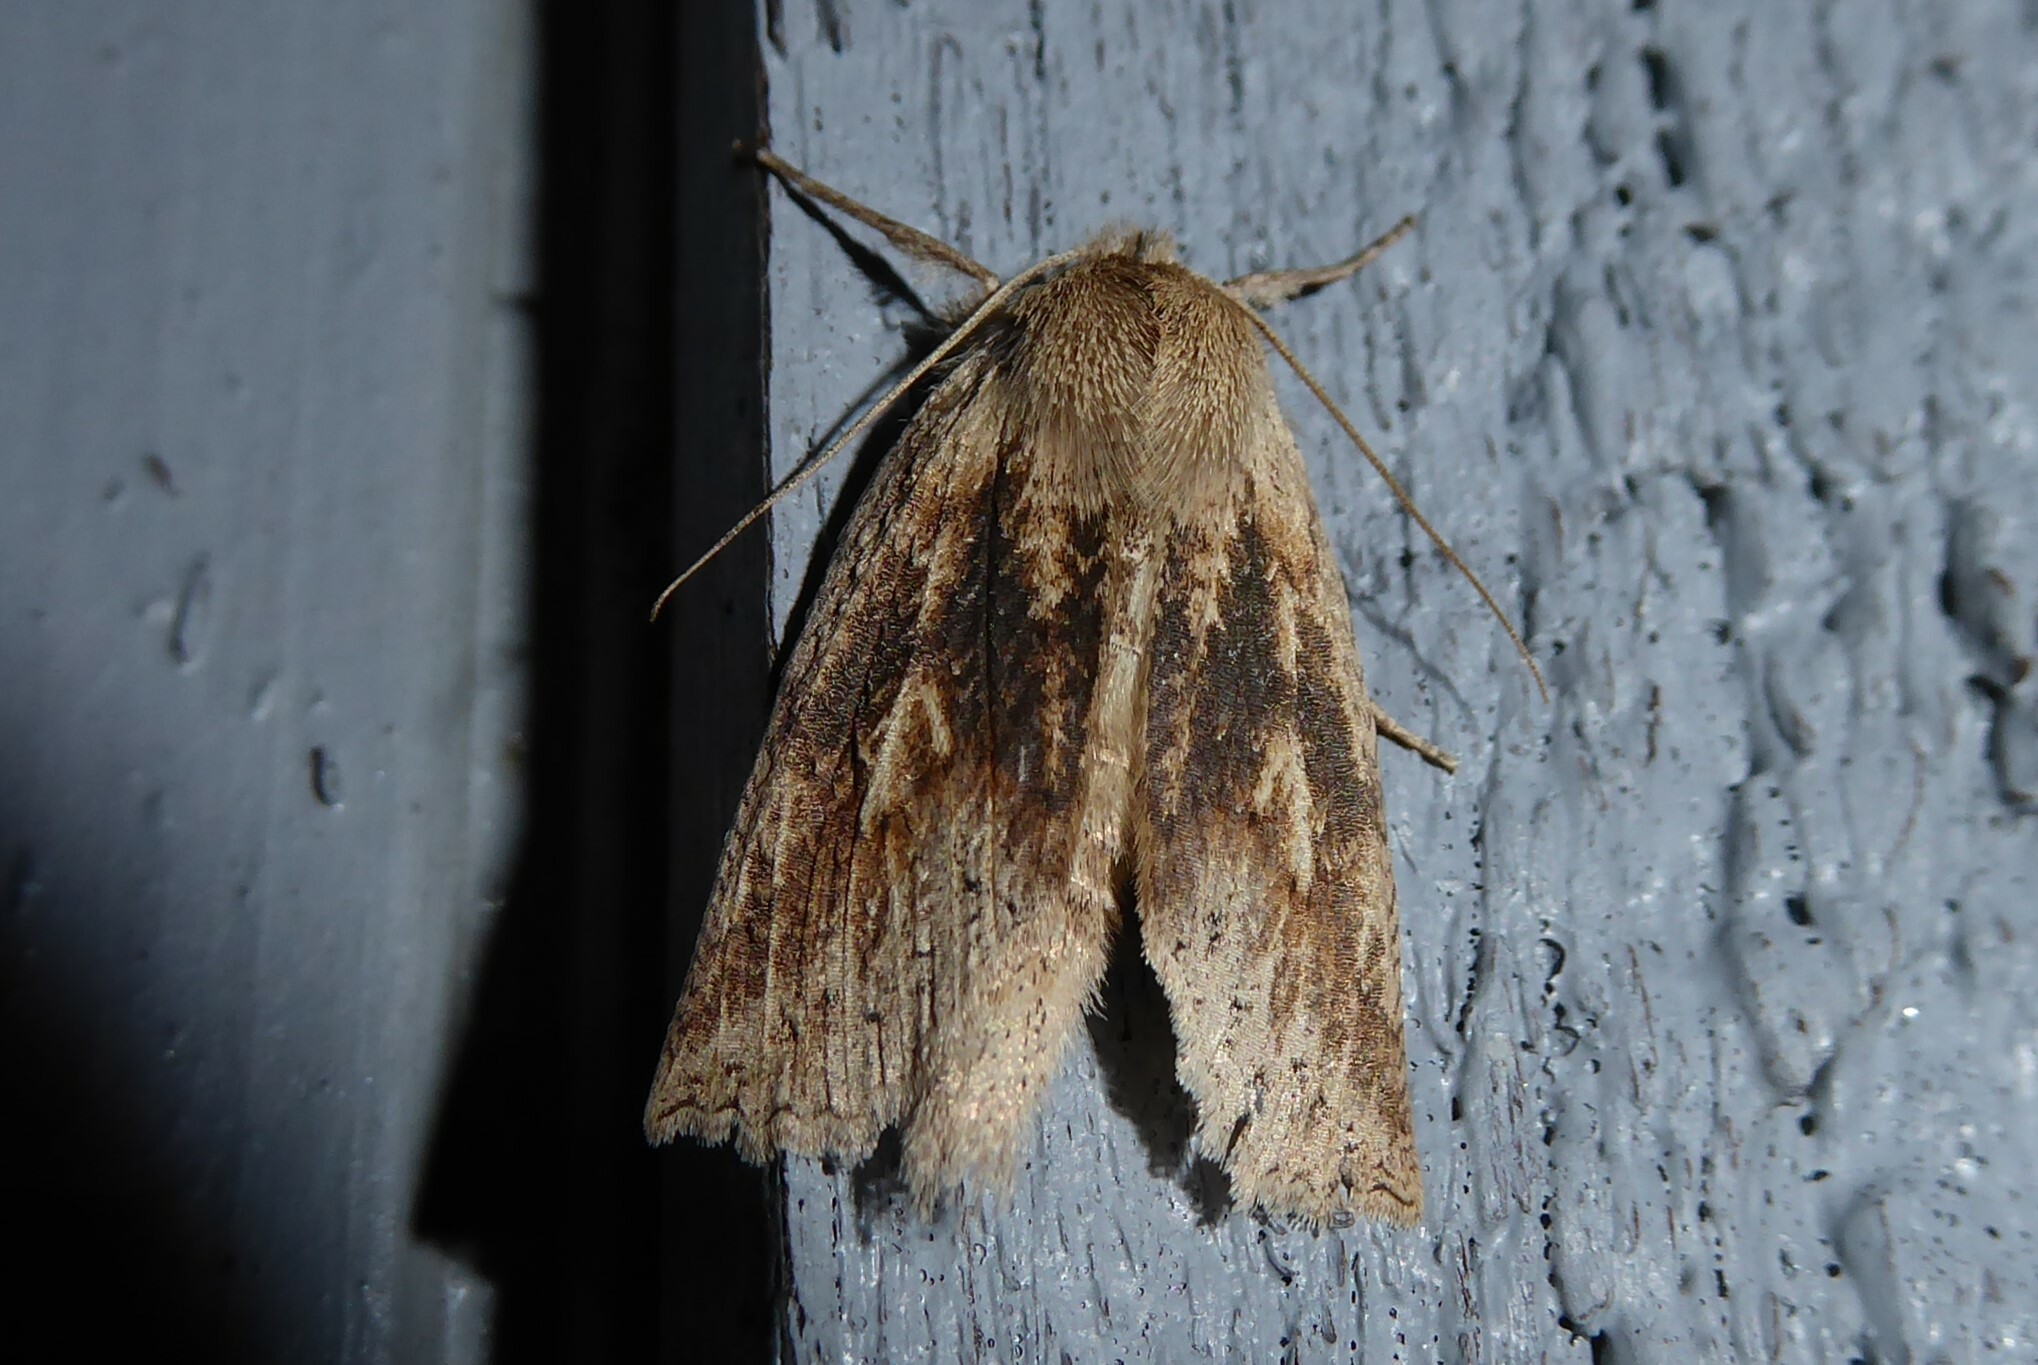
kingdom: Animalia
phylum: Arthropoda
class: Insecta
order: Lepidoptera
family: Geometridae
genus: Declana
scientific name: Declana leptomera
